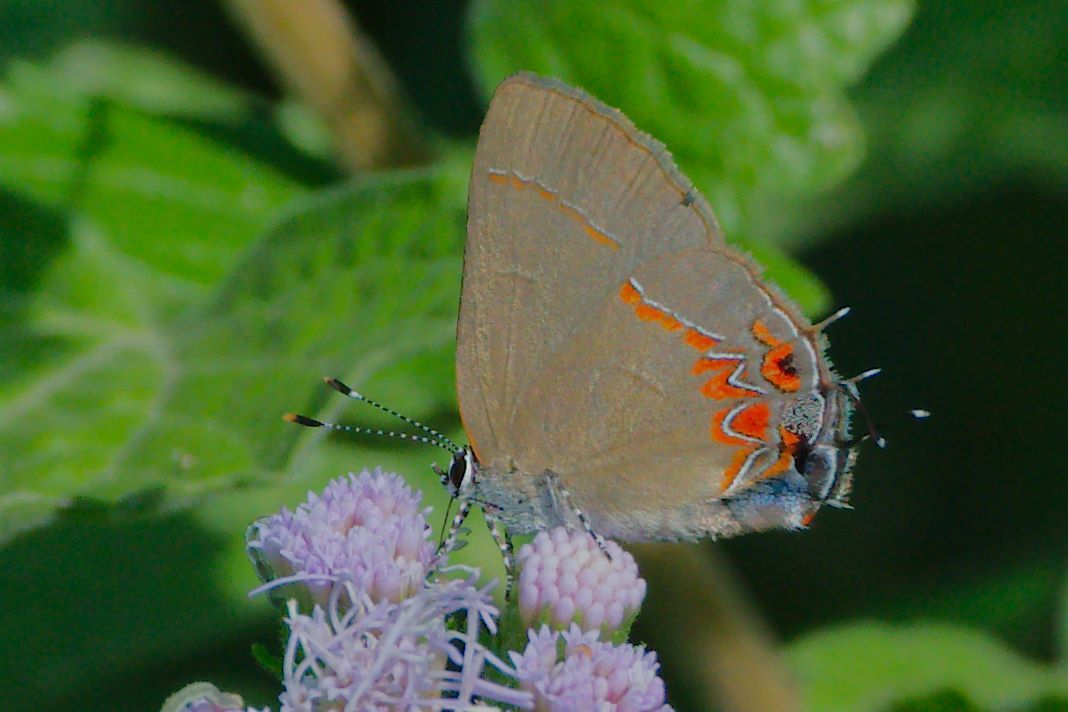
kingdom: Animalia
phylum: Arthropoda
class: Insecta
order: Lepidoptera
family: Lycaenidae
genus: Calycopis
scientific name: Calycopis isobeon
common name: Dusky-blue groundstreak
